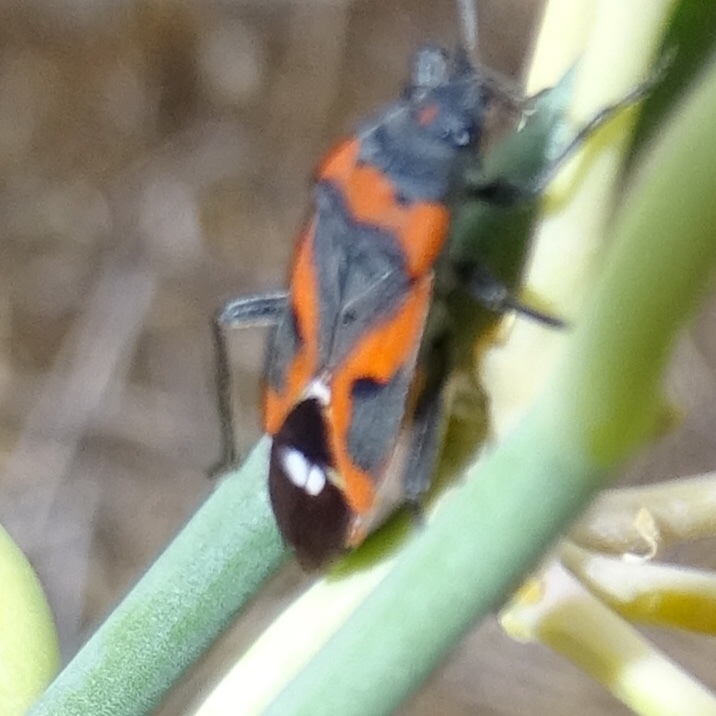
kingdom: Animalia
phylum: Arthropoda
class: Insecta
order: Hemiptera
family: Lygaeidae
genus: Lygaeus
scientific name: Lygaeus kalmii
